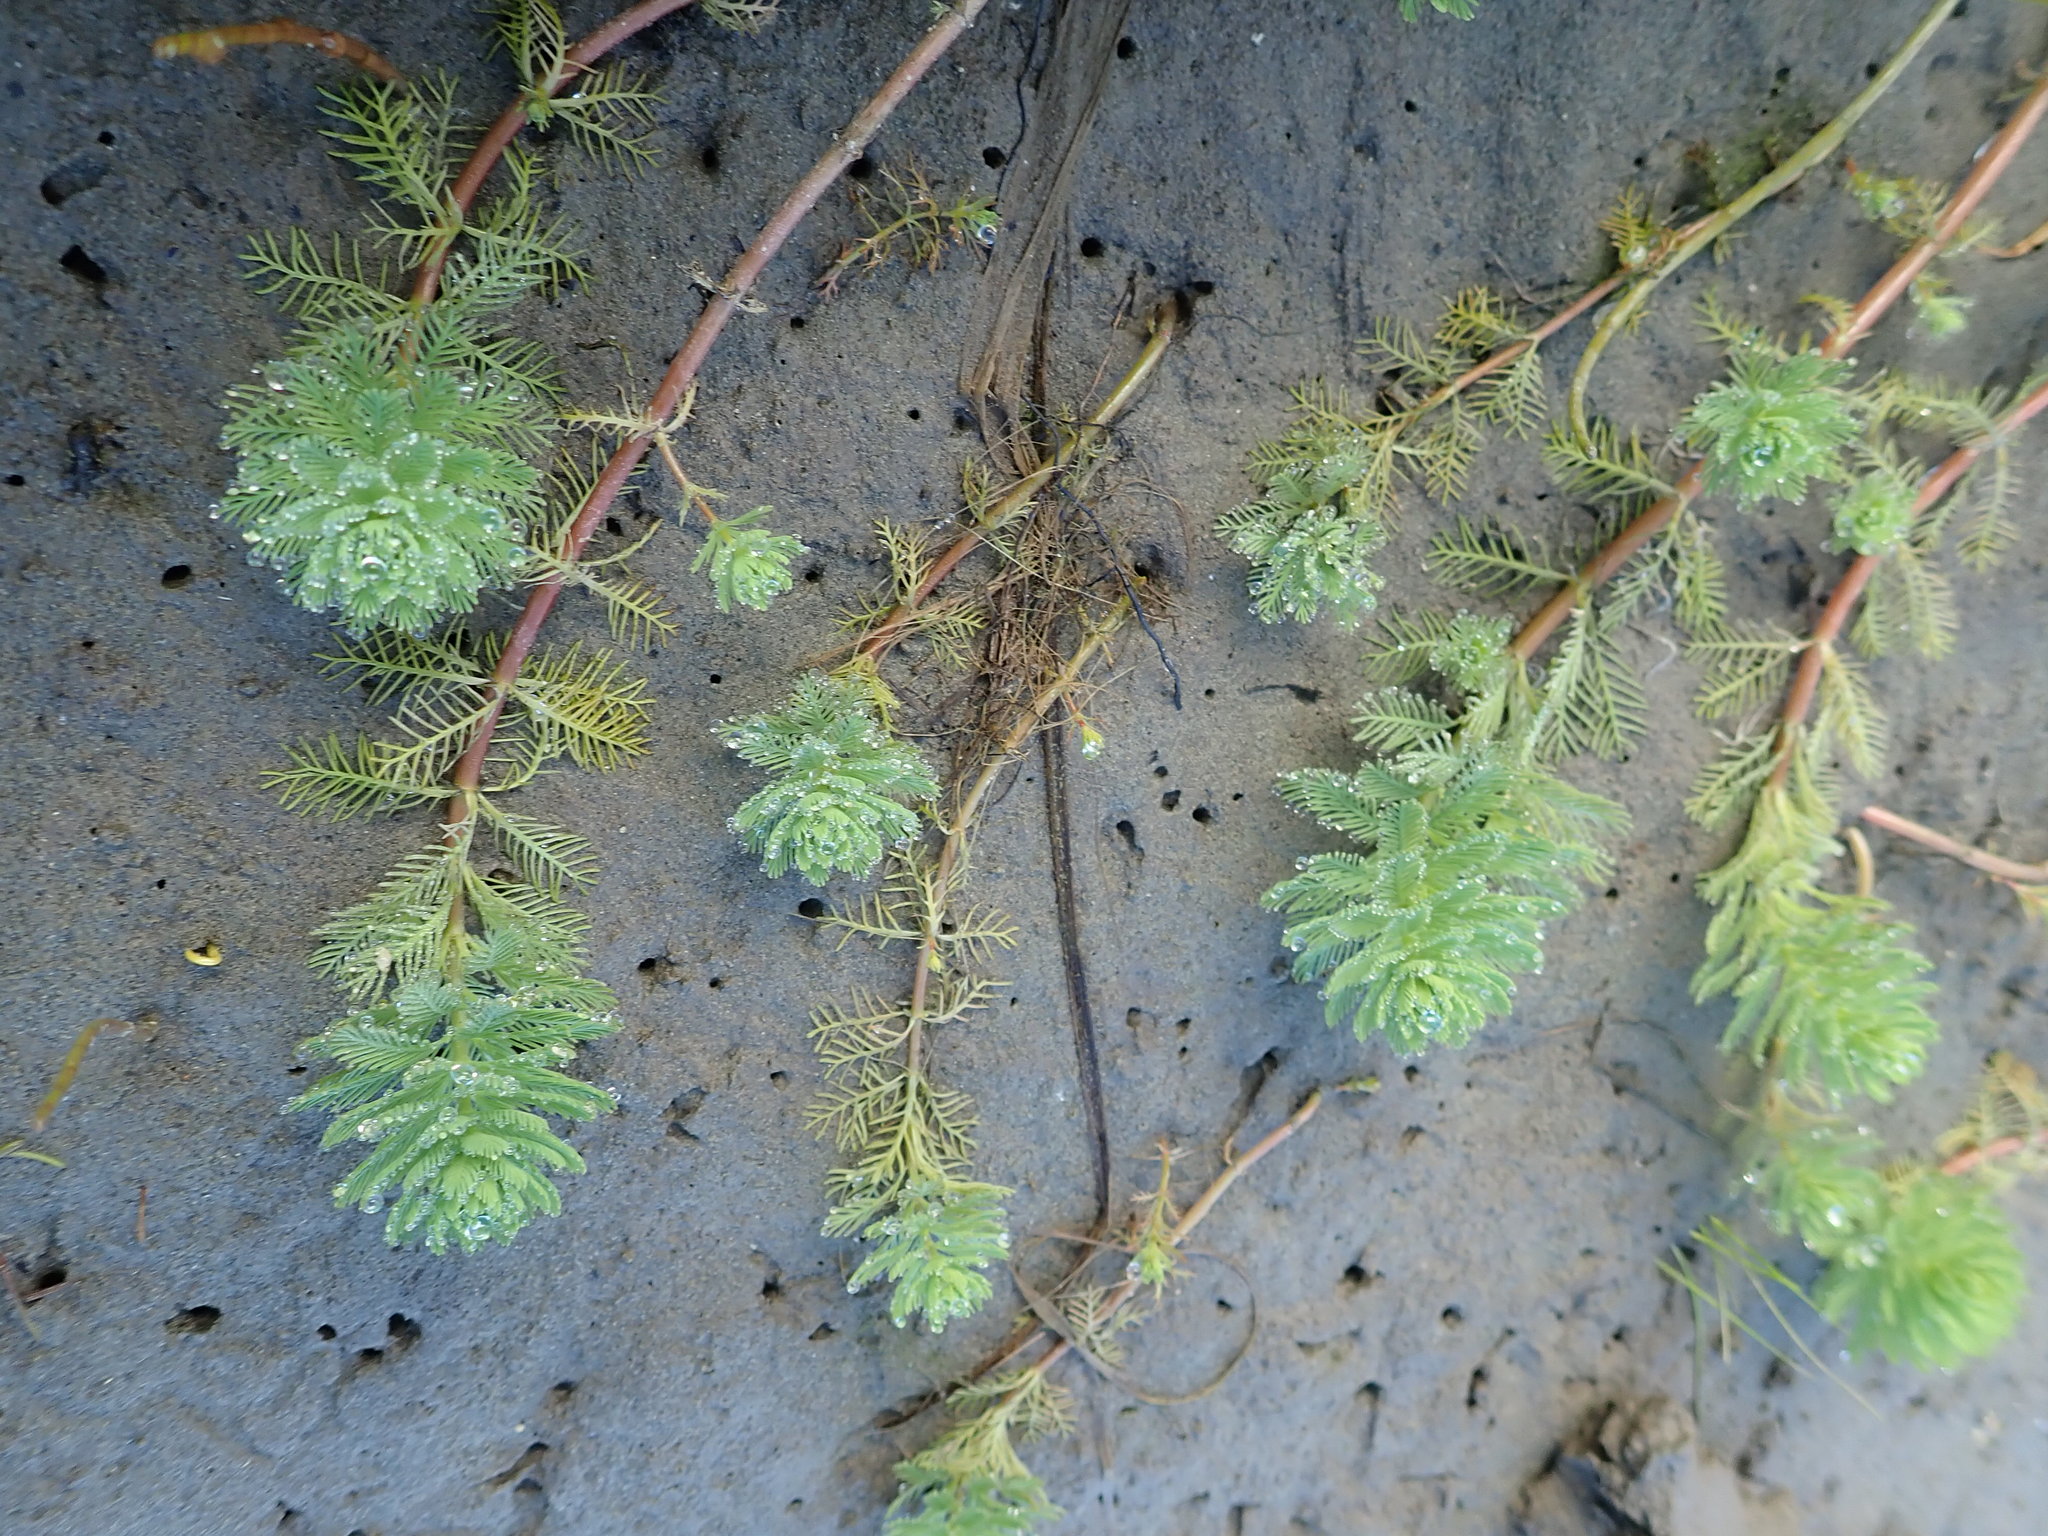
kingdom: Plantae
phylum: Tracheophyta
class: Magnoliopsida
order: Saxifragales
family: Haloragaceae
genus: Myriophyllum
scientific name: Myriophyllum aquaticum
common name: Parrot's feather
